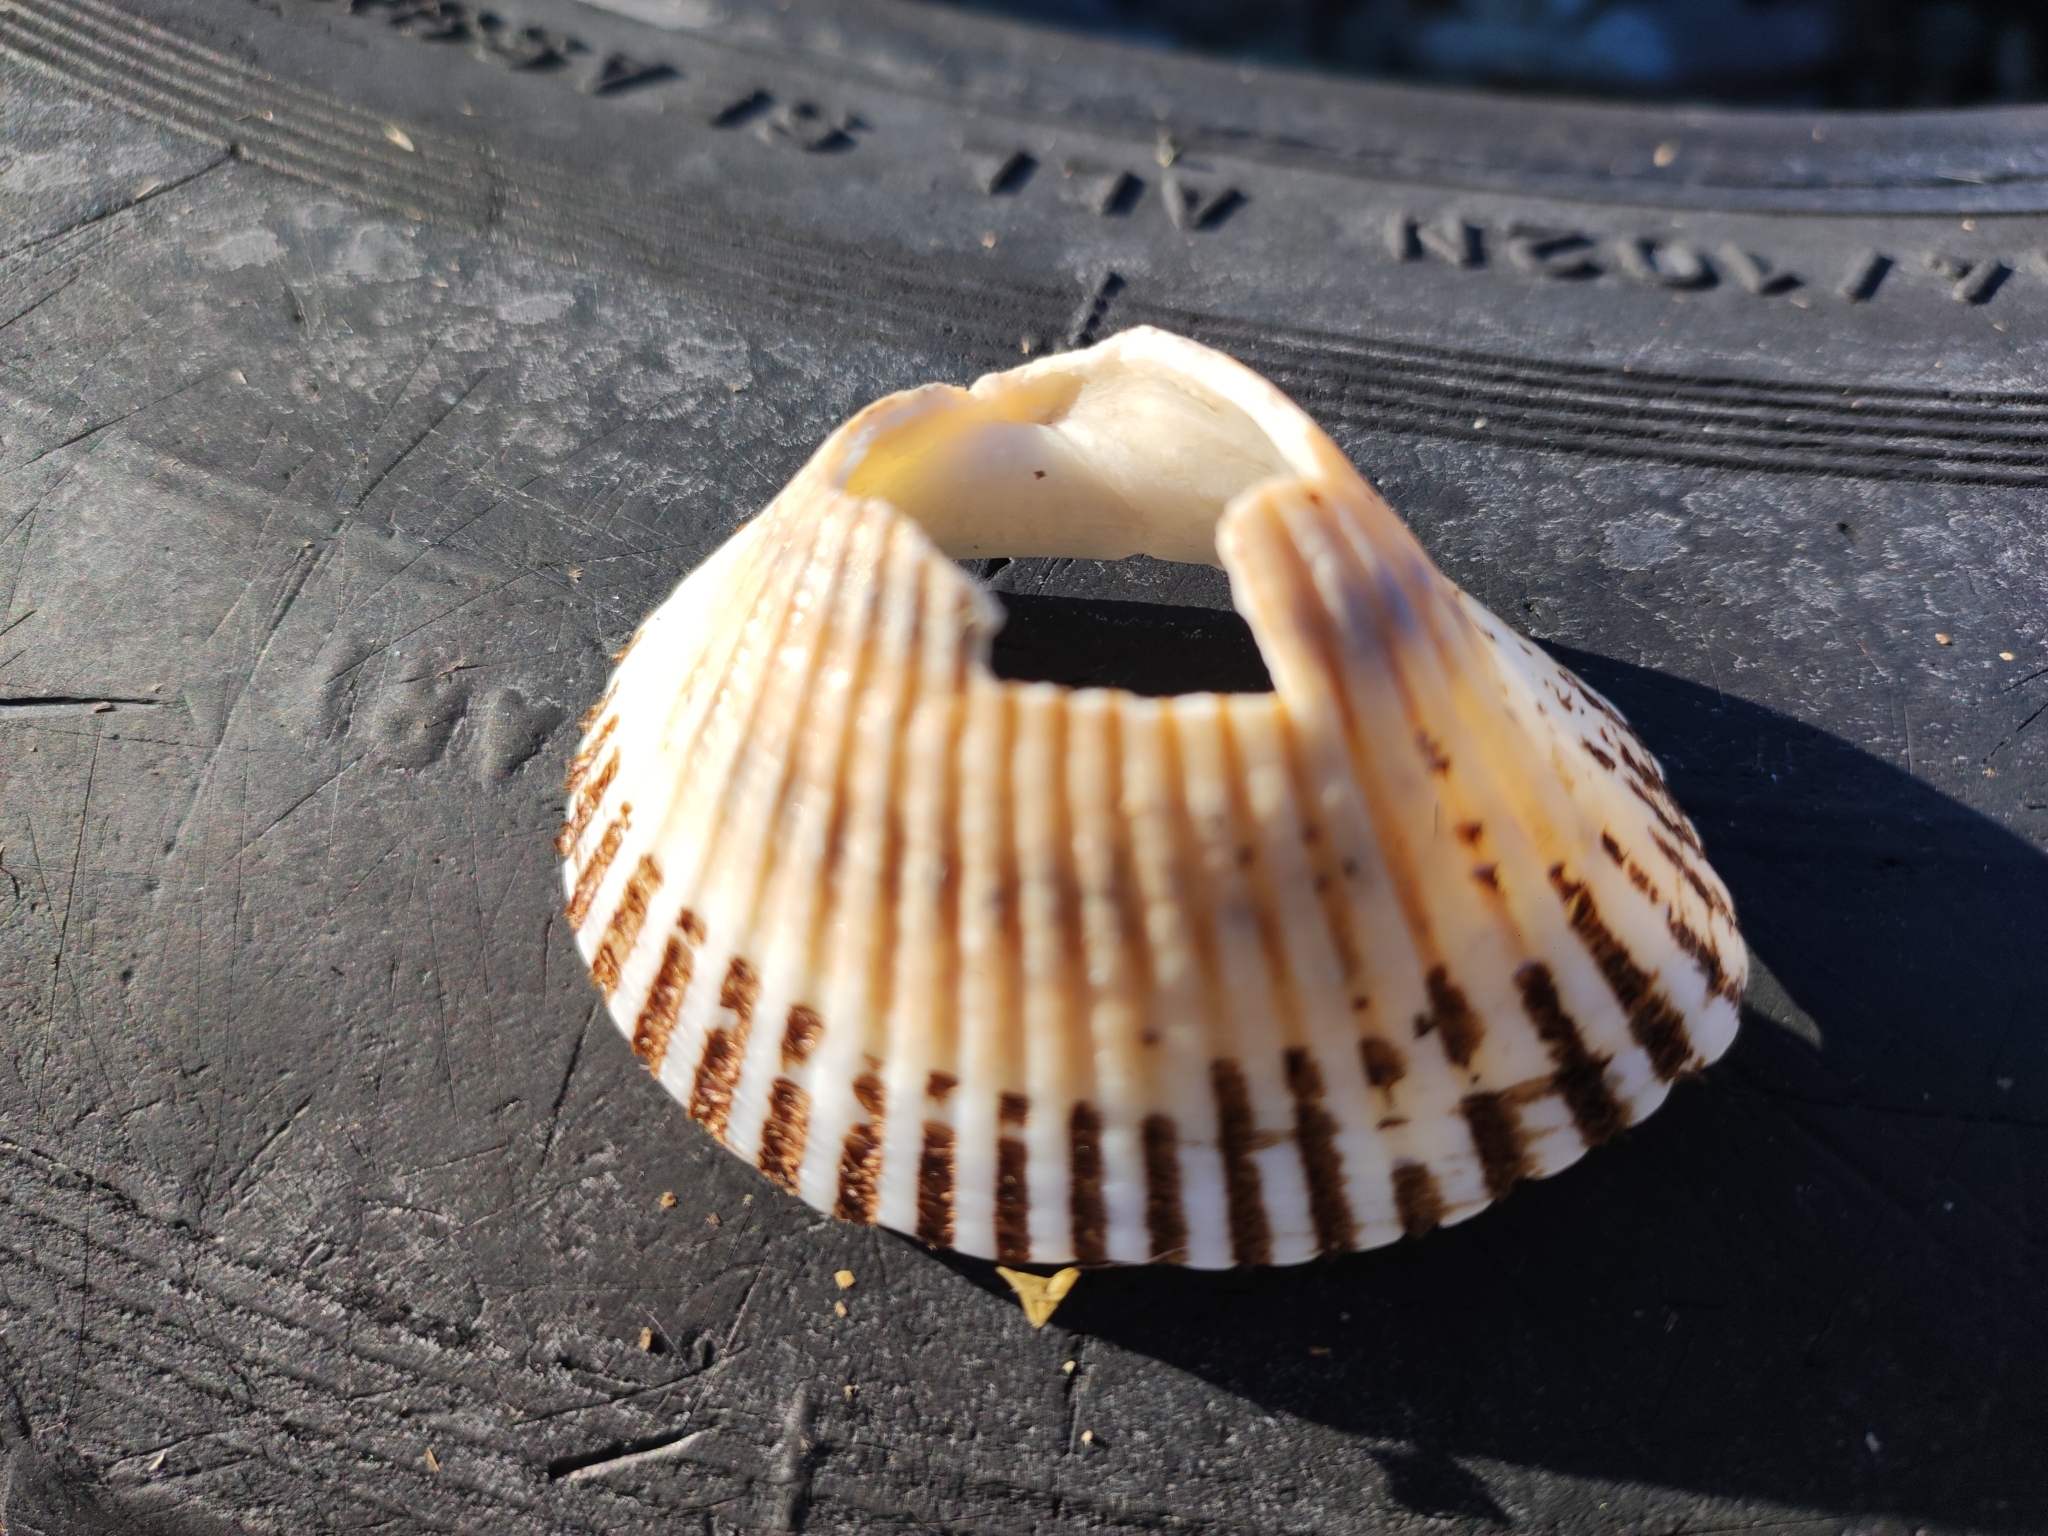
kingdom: Animalia
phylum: Mollusca
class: Bivalvia
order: Arcida
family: Arcidae
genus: Anadara
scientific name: Anadara kagoshimensis
